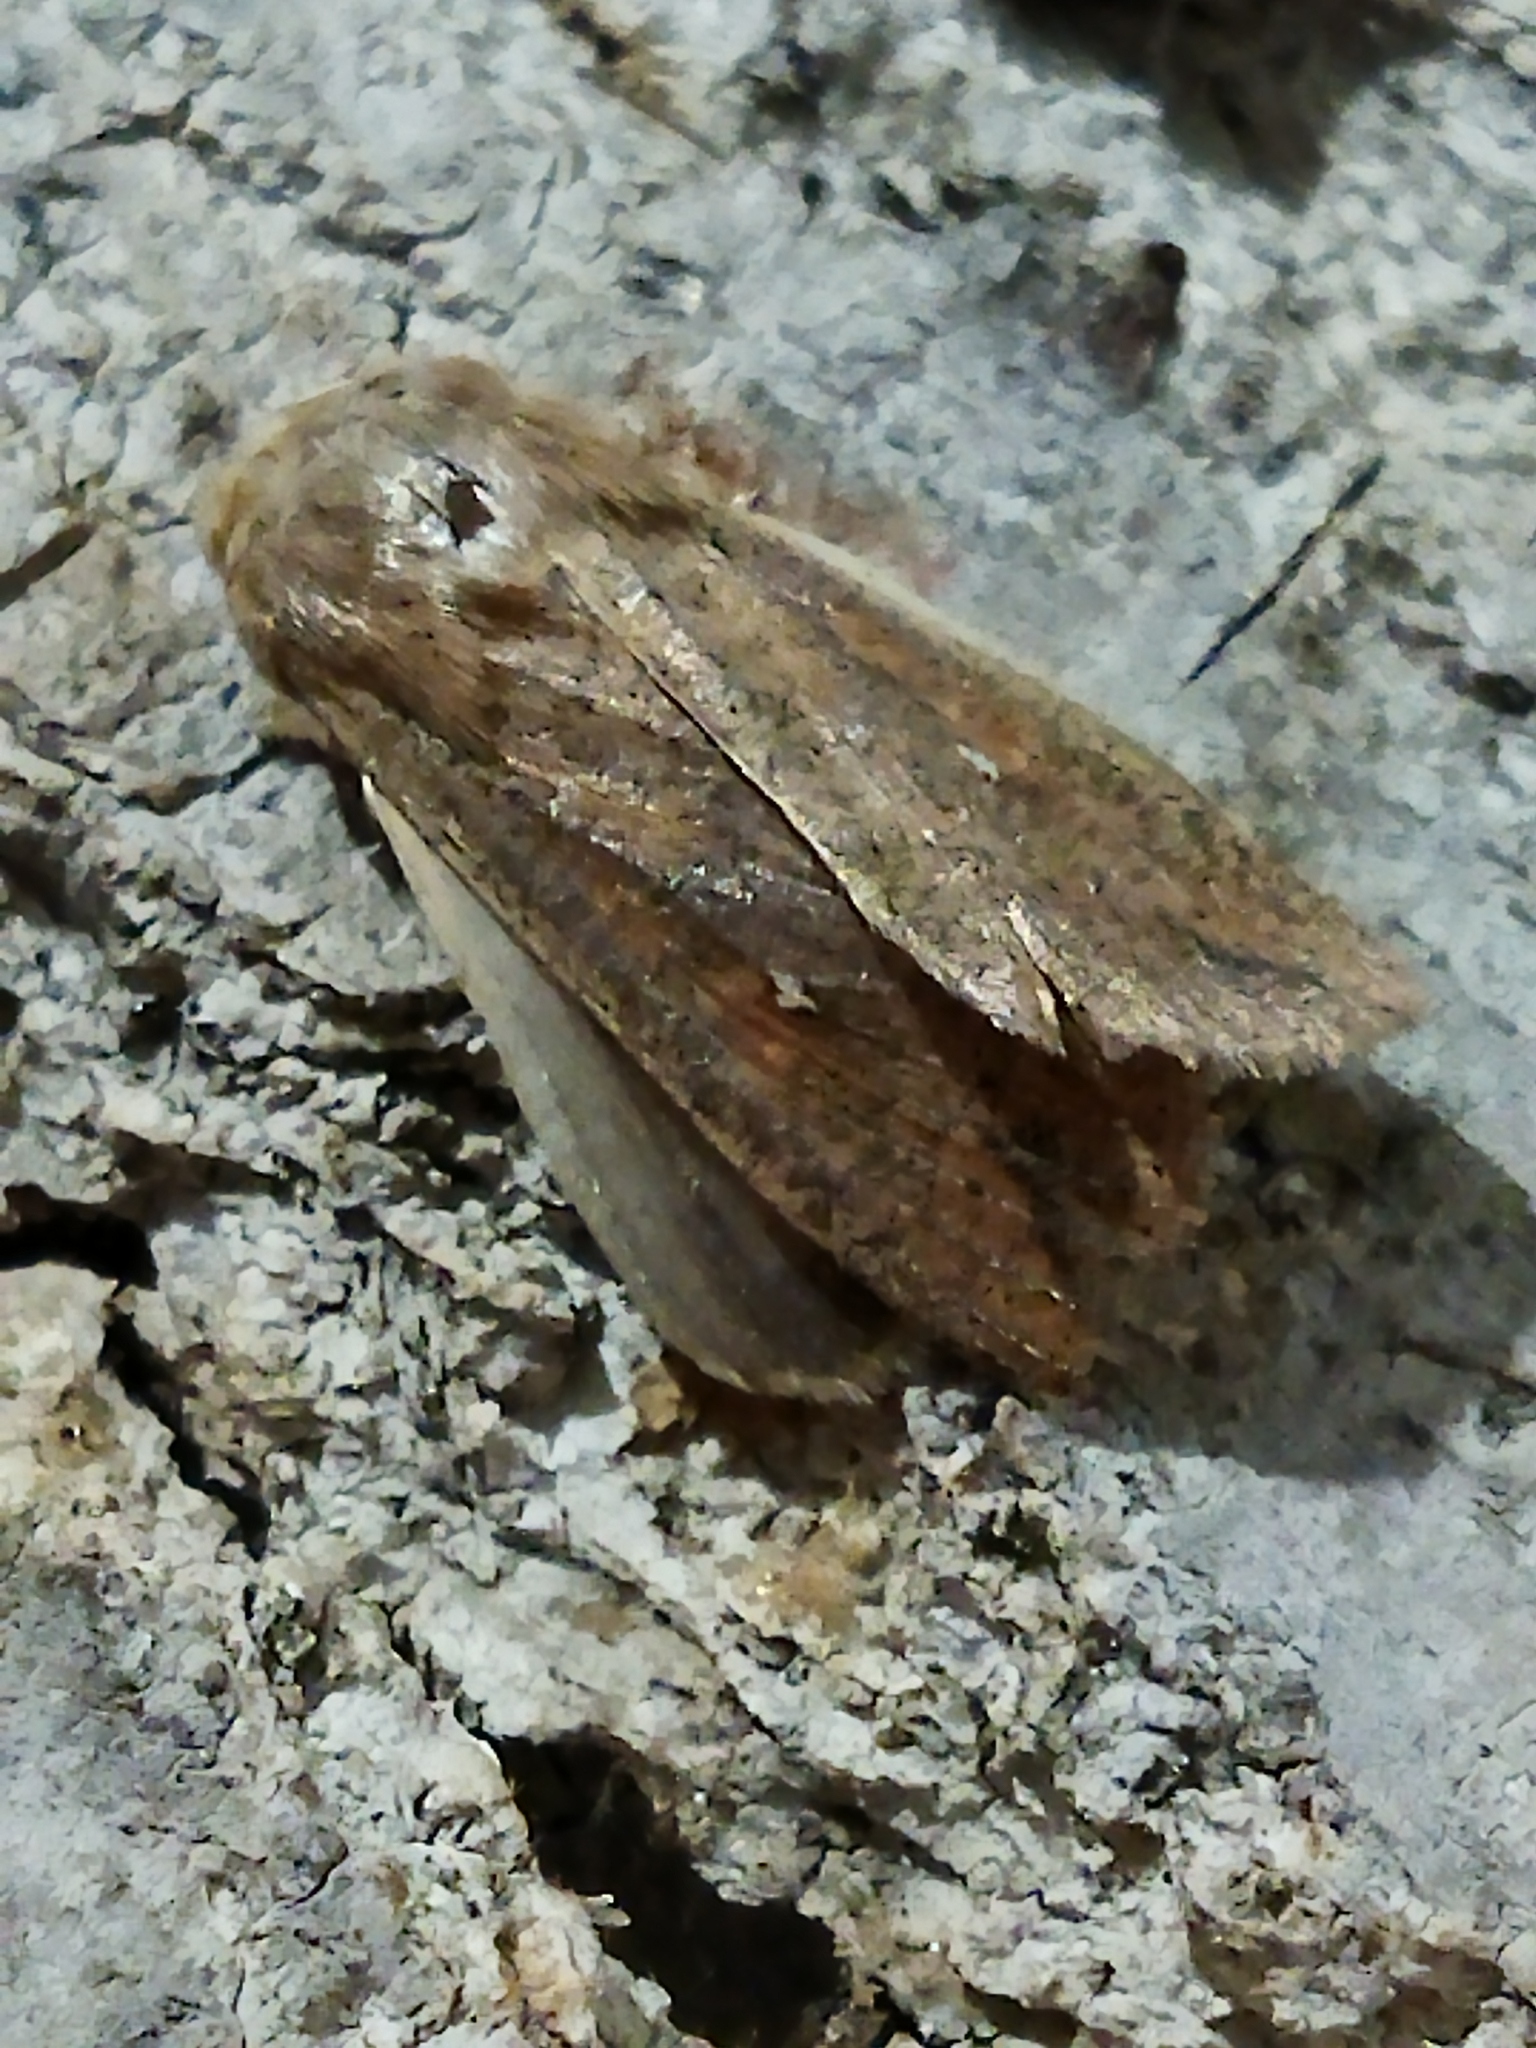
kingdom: Animalia
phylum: Arthropoda
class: Insecta
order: Lepidoptera
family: Noctuidae
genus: Mythimna
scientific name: Mythimna unipuncta
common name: White-speck
